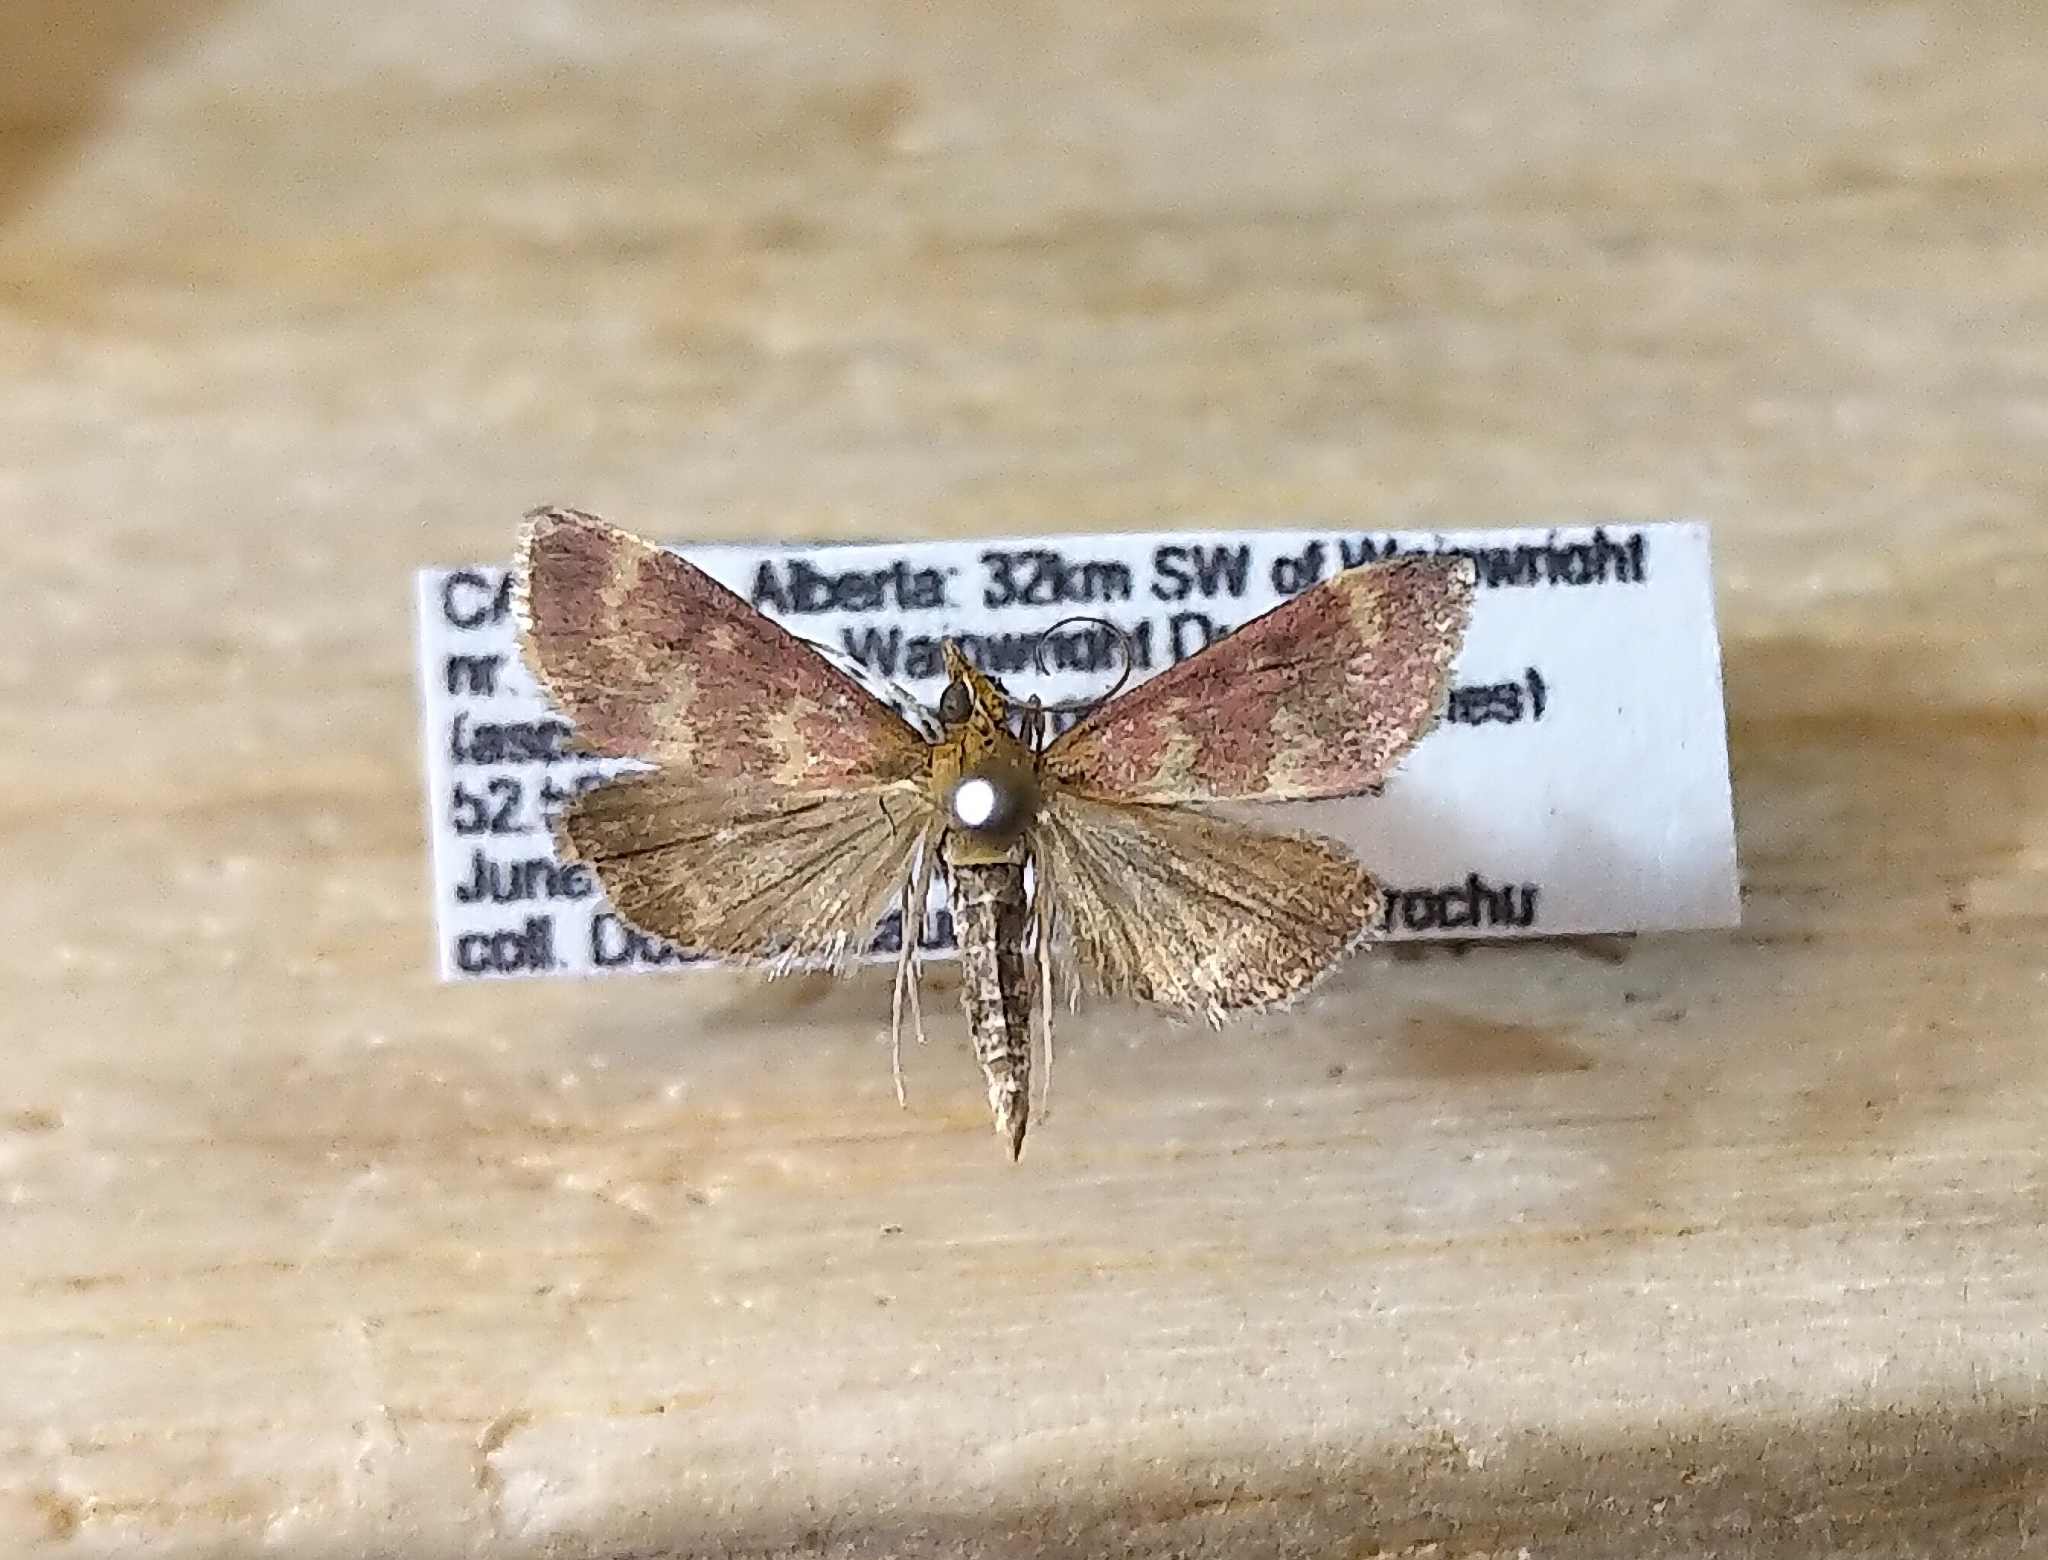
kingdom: Animalia
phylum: Arthropoda
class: Insecta
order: Lepidoptera
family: Crambidae
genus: Pyrausta
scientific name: Pyrausta signatalis
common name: Raspberry pyrausta moth
